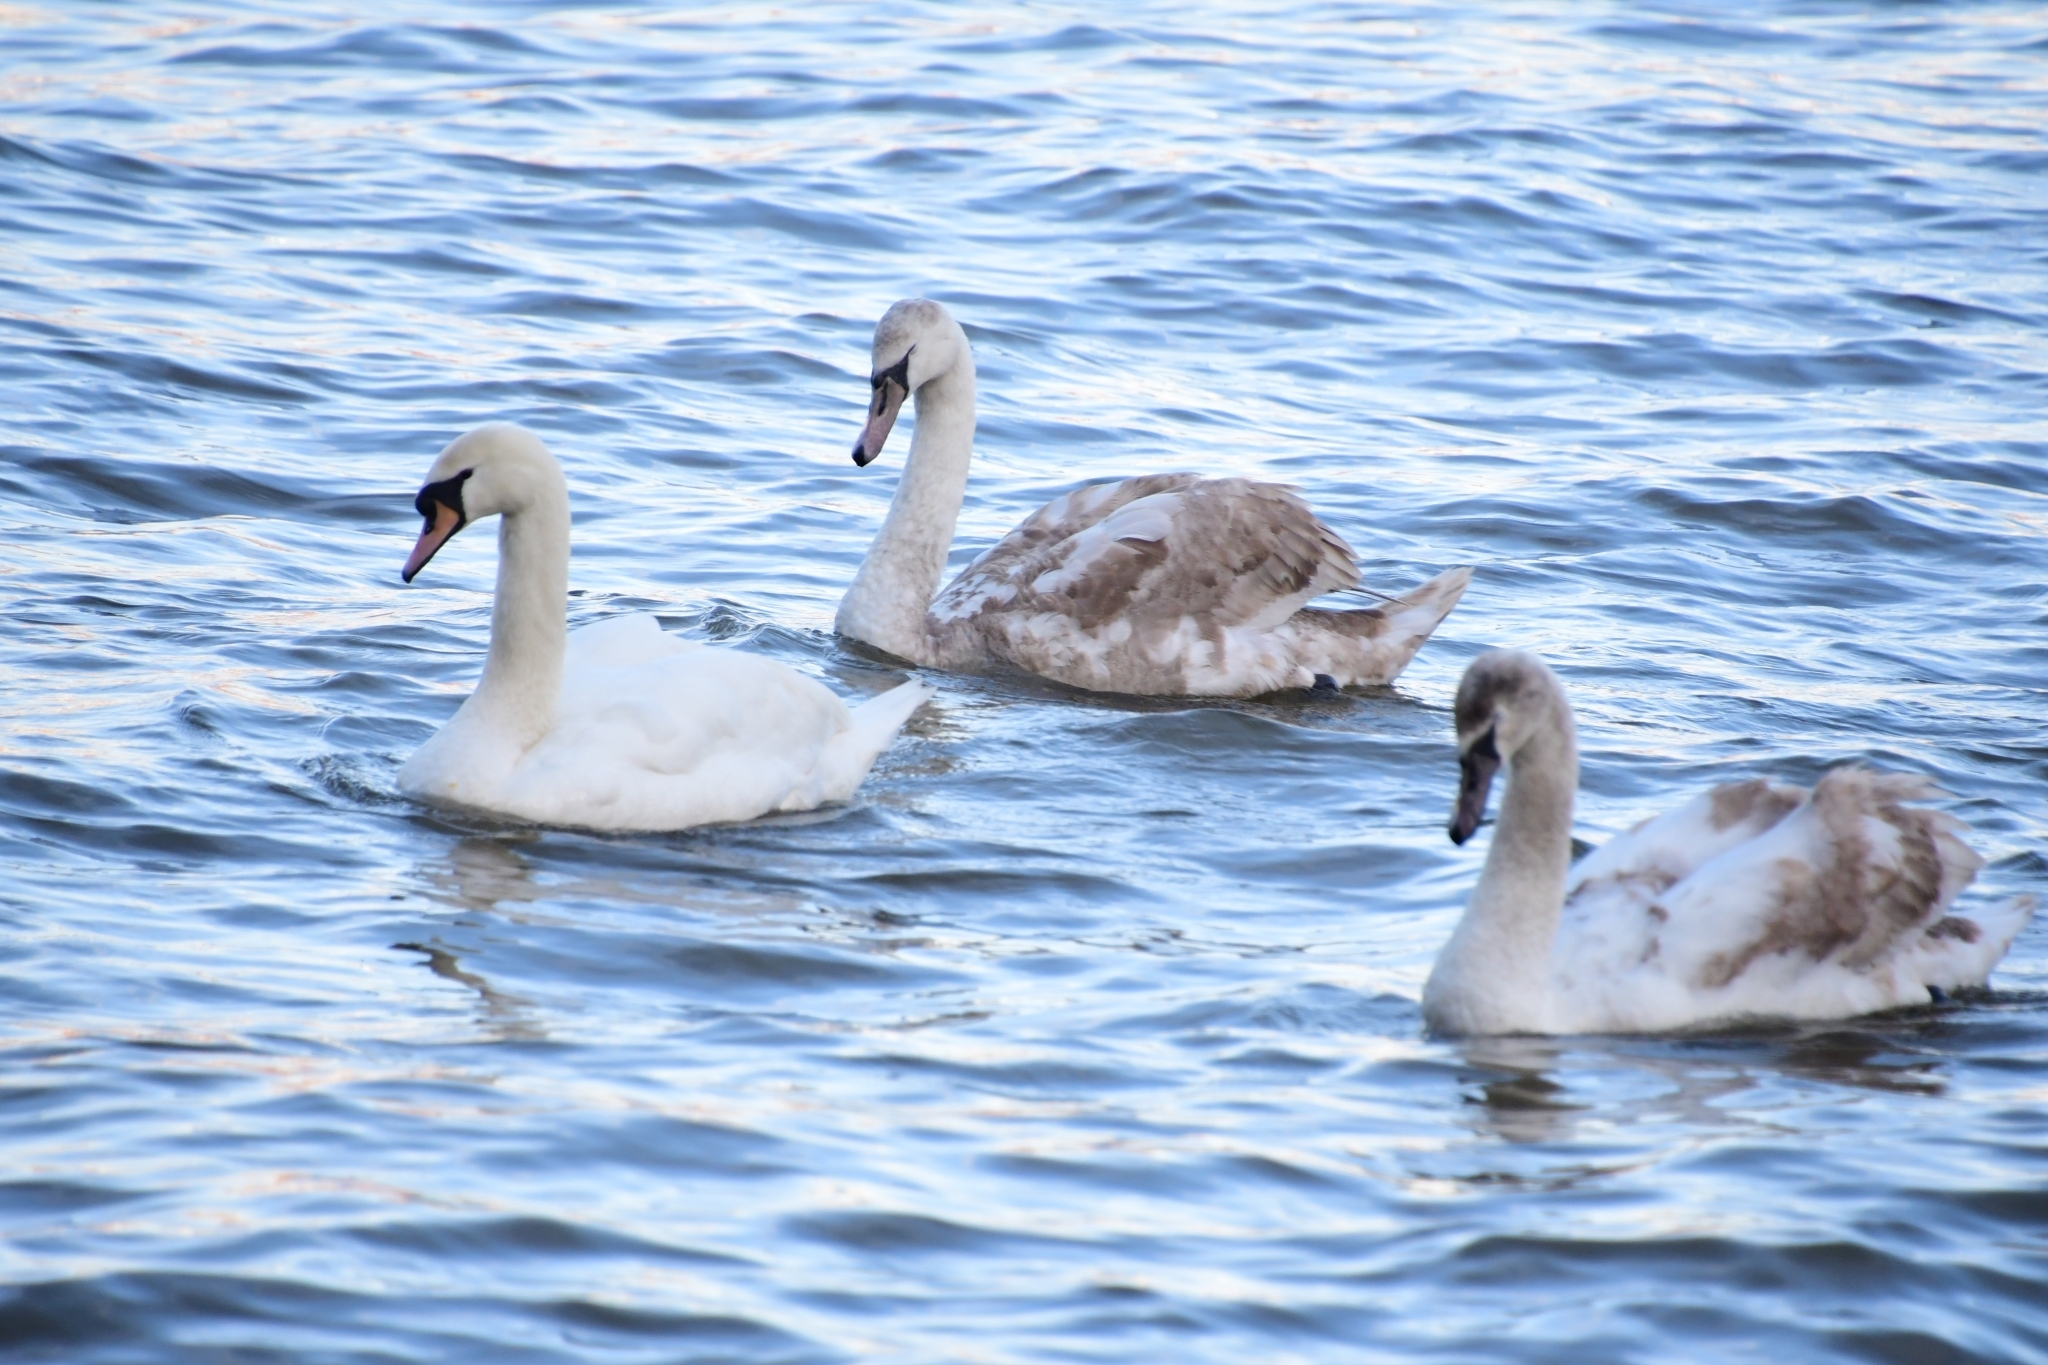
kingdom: Animalia
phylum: Chordata
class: Aves
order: Anseriformes
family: Anatidae
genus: Cygnus
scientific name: Cygnus olor
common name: Mute swan
